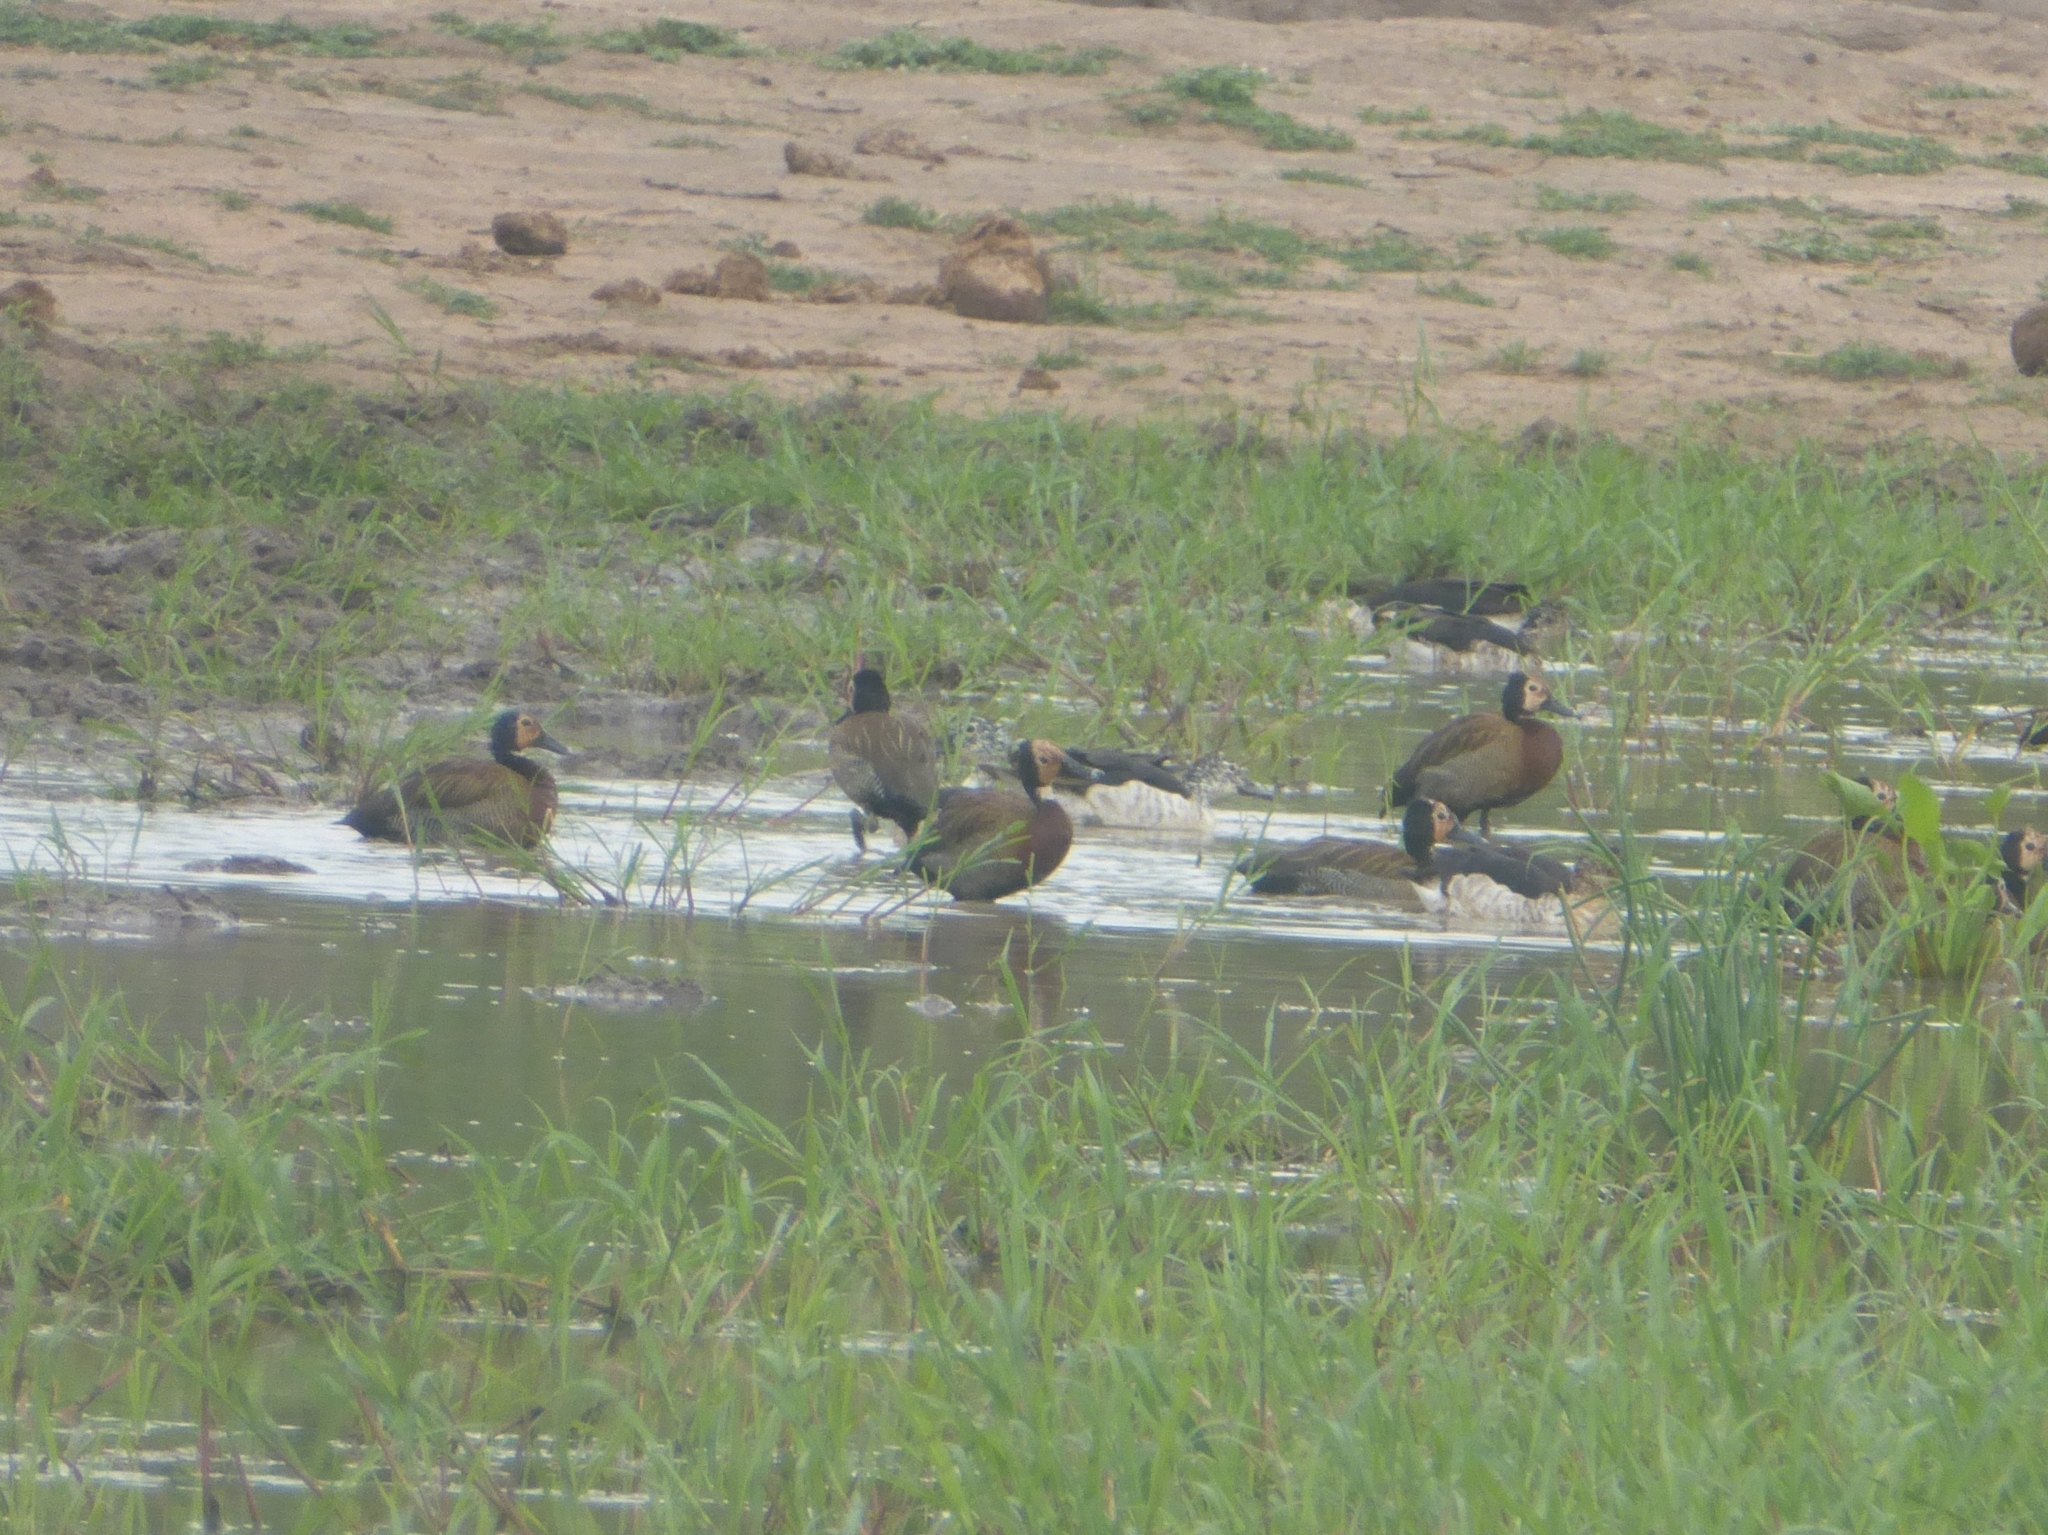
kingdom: Animalia
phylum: Chordata
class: Aves
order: Anseriformes
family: Anatidae
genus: Dendrocygna
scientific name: Dendrocygna viduata
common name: White-faced whistling duck
